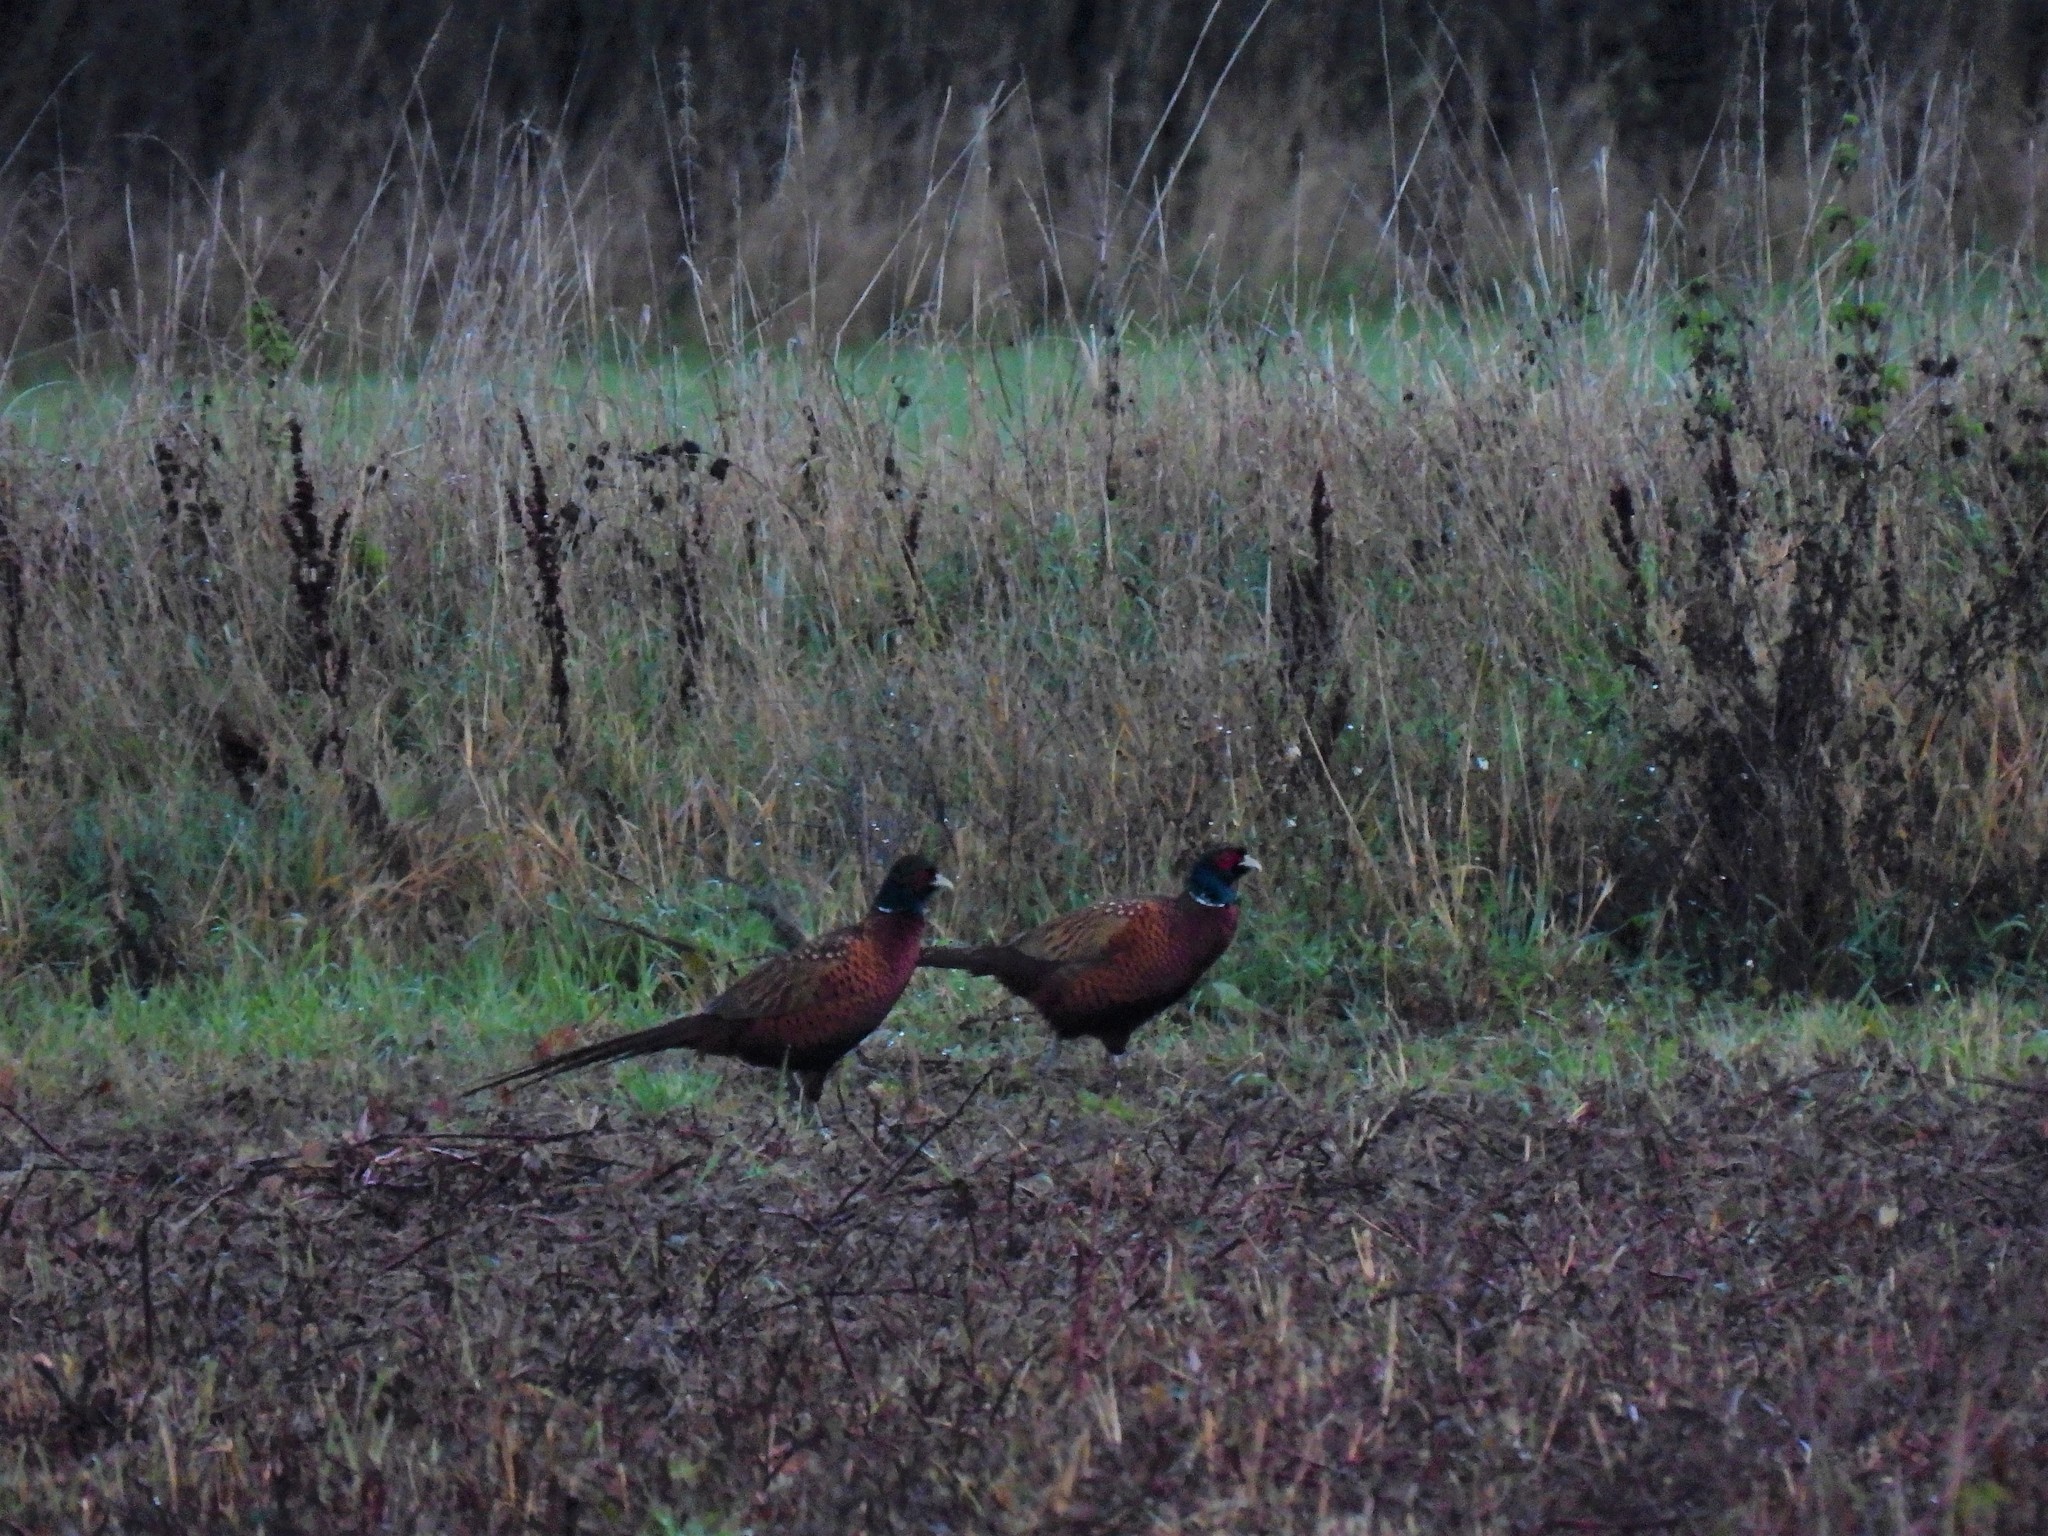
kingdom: Animalia
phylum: Chordata
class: Aves
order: Galliformes
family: Phasianidae
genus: Phasianus
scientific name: Phasianus colchicus
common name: Common pheasant
